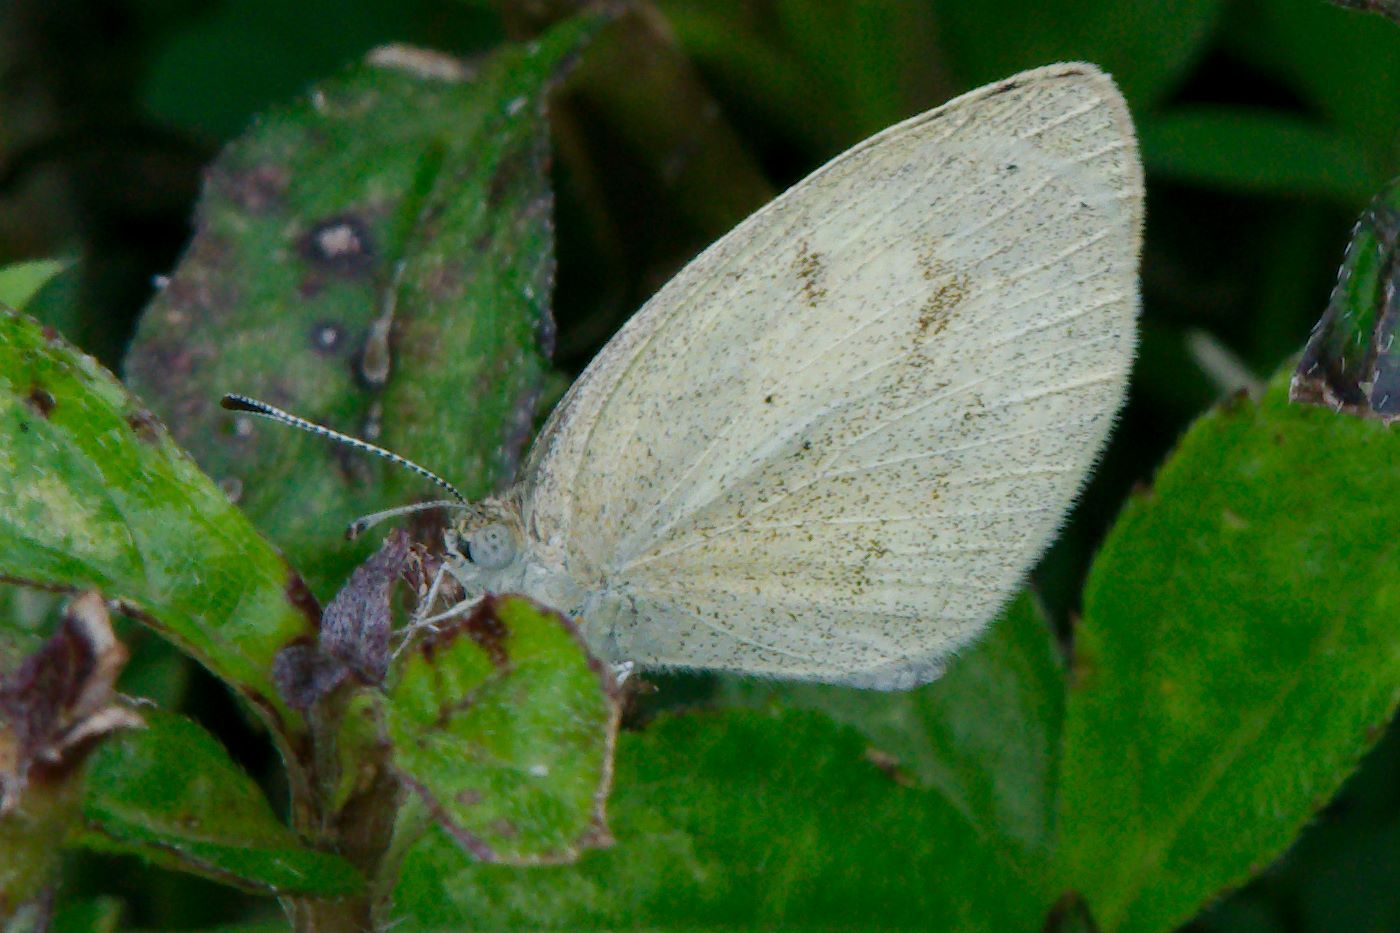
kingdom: Animalia
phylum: Arthropoda
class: Insecta
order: Lepidoptera
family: Pieridae
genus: Eurema
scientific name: Eurema daira
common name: Barred sulphur
